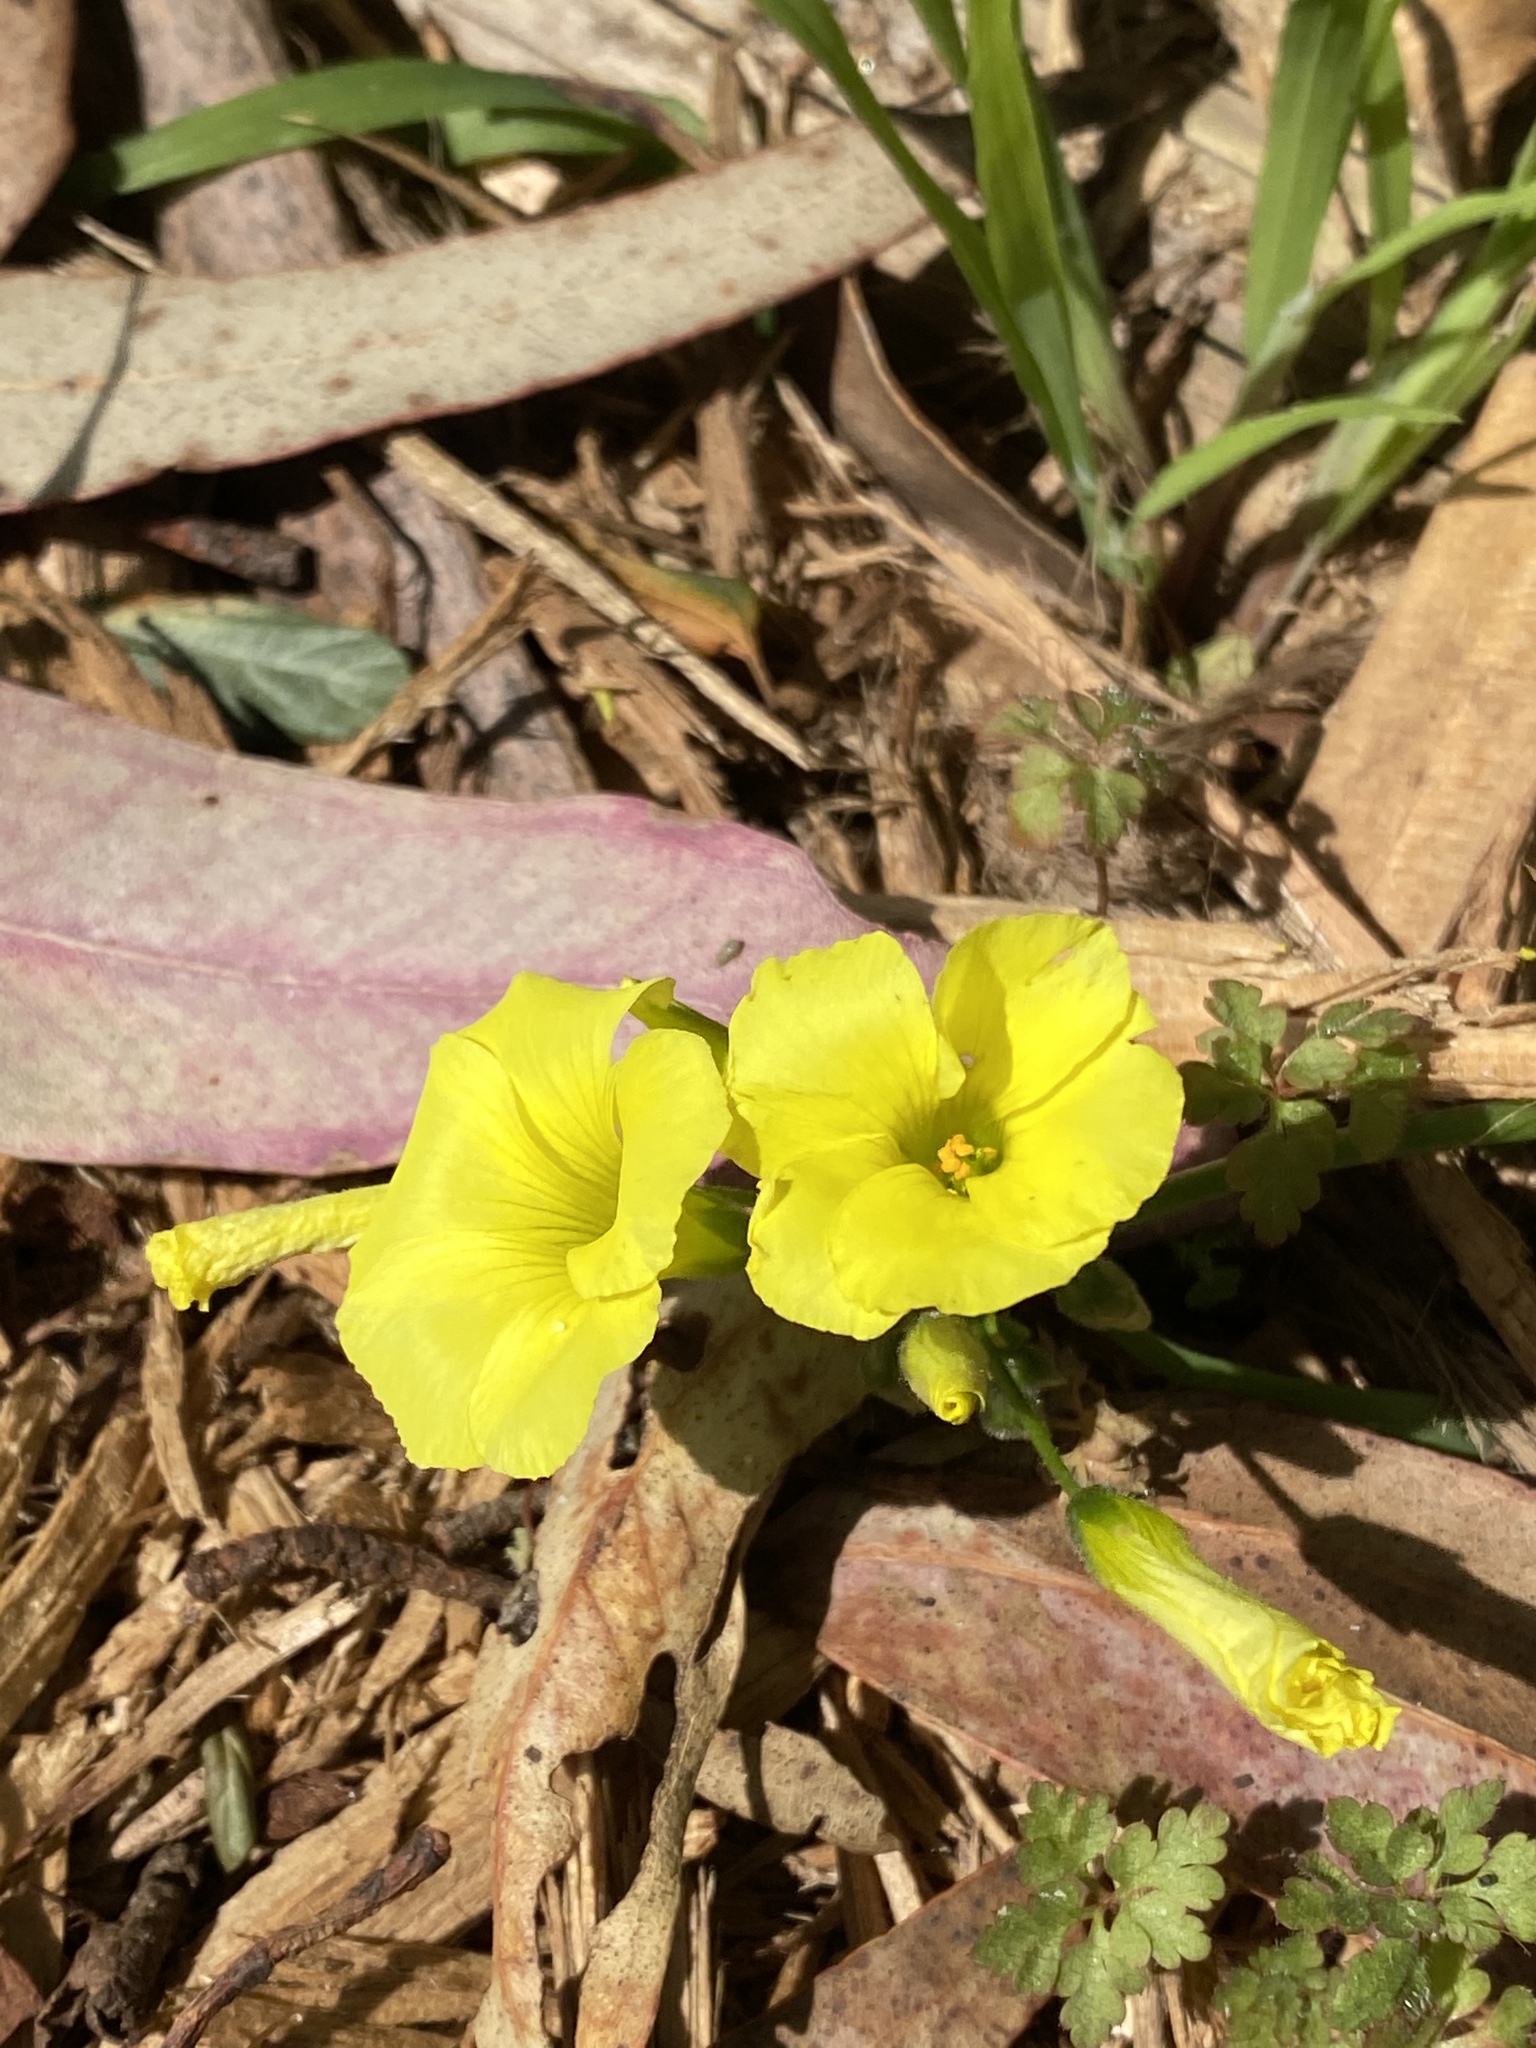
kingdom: Plantae
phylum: Tracheophyta
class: Magnoliopsida
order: Oxalidales
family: Oxalidaceae
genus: Oxalis
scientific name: Oxalis pes-caprae
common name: Bermuda-buttercup
